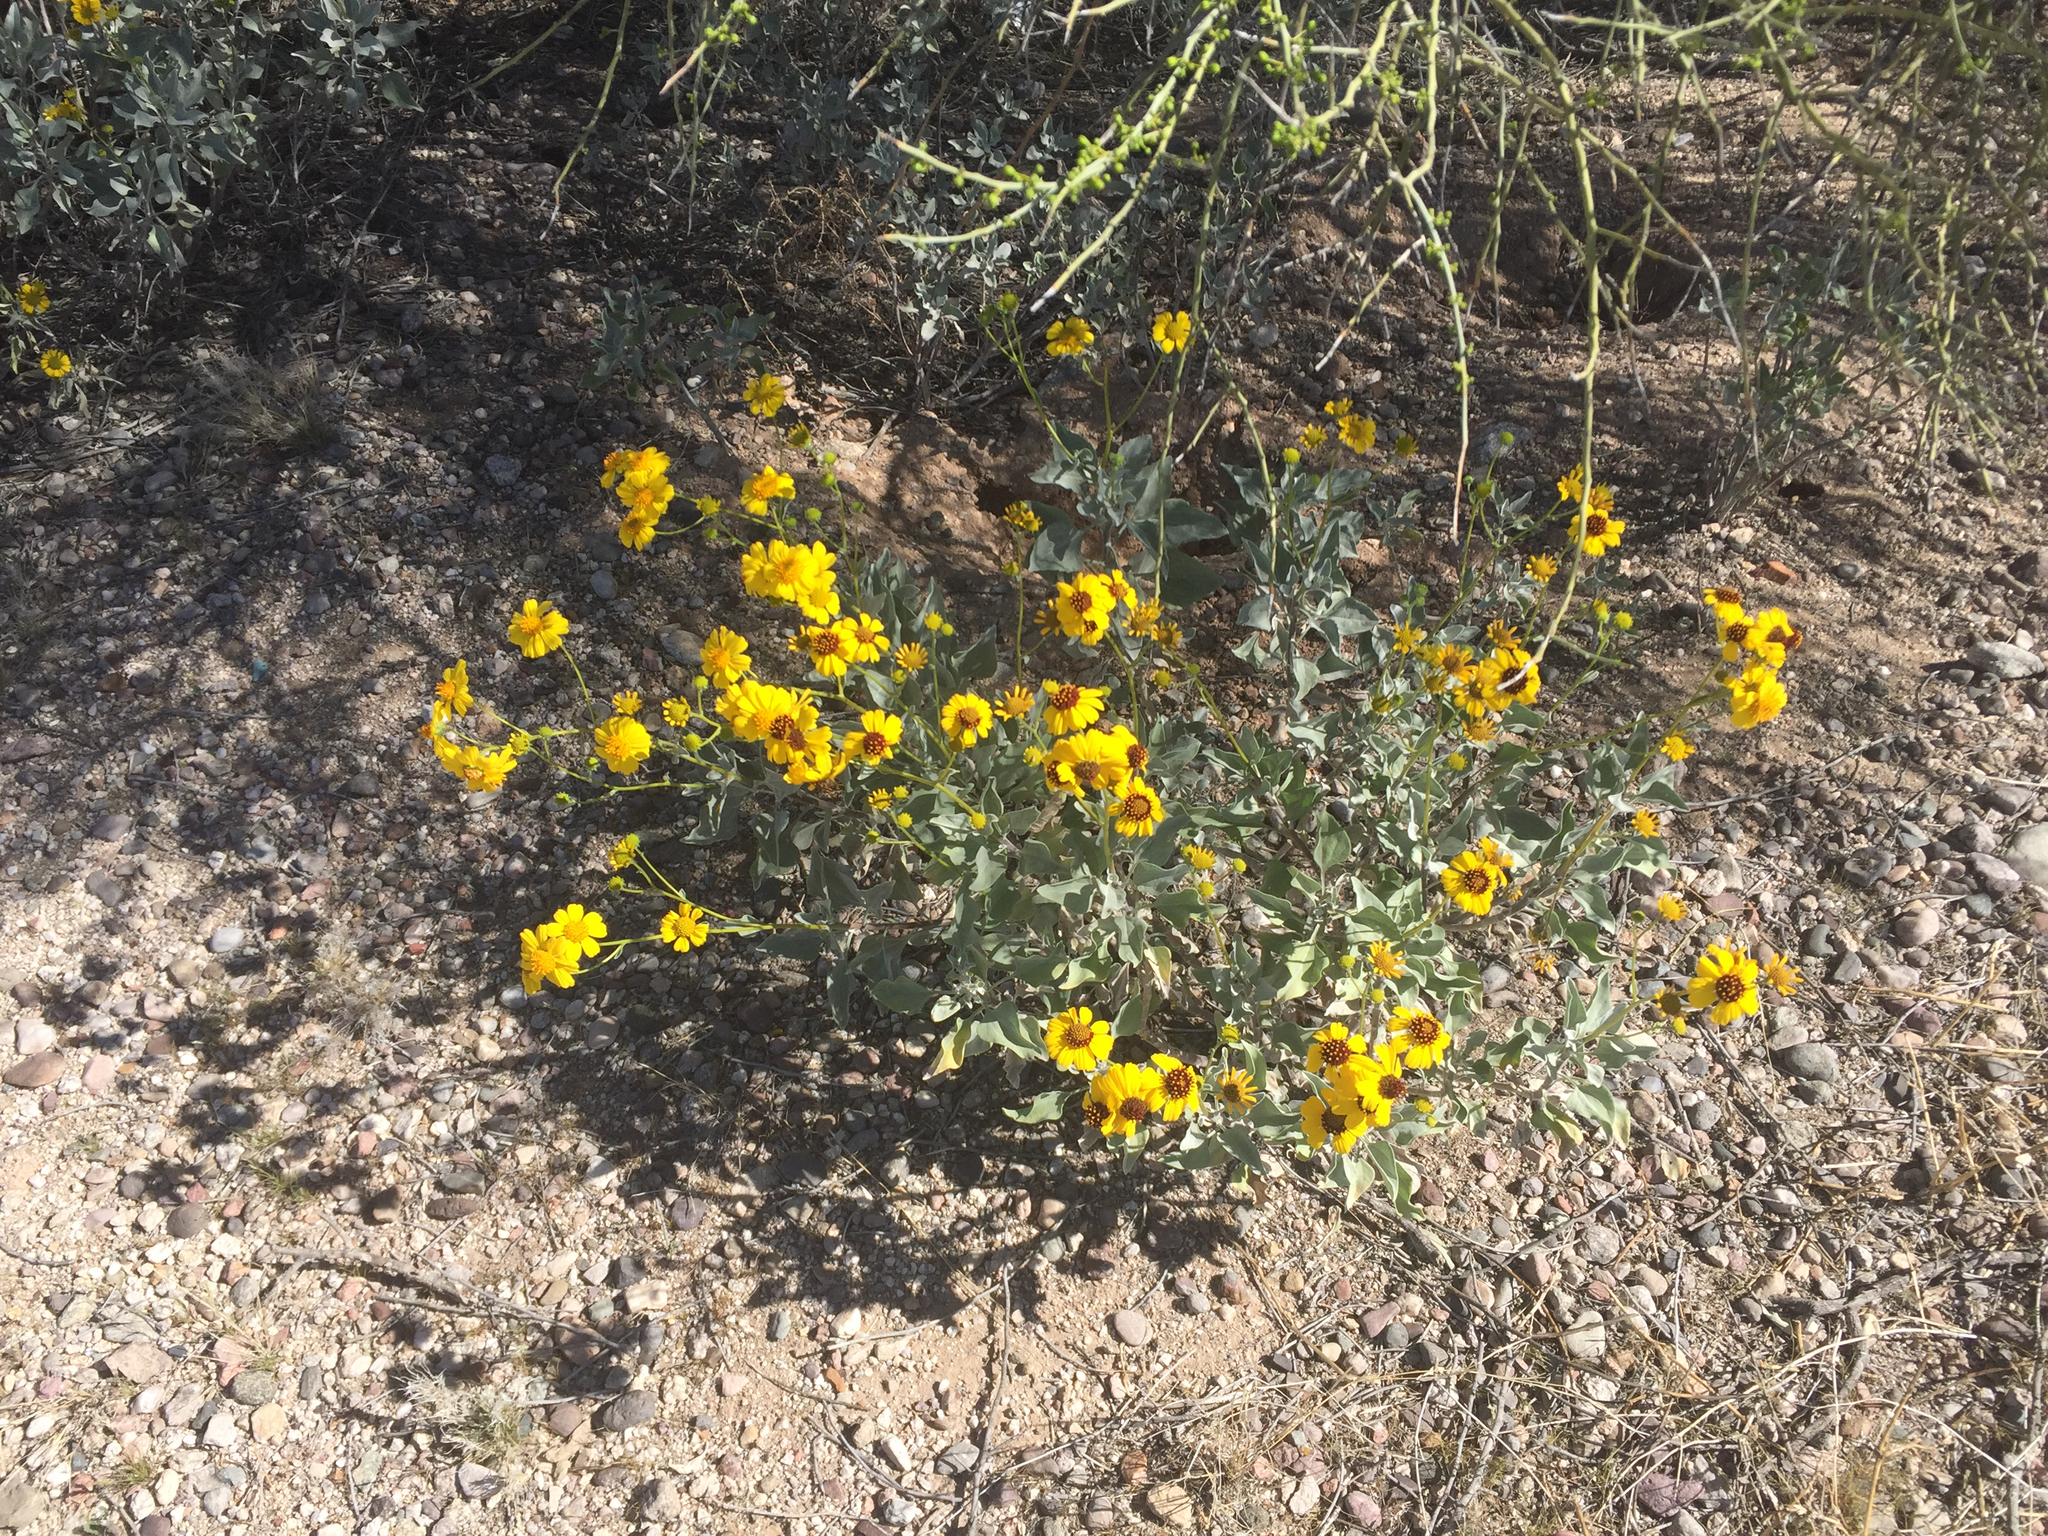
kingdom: Plantae
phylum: Tracheophyta
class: Magnoliopsida
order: Asterales
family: Asteraceae
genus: Encelia
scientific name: Encelia farinosa
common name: Brittlebush
